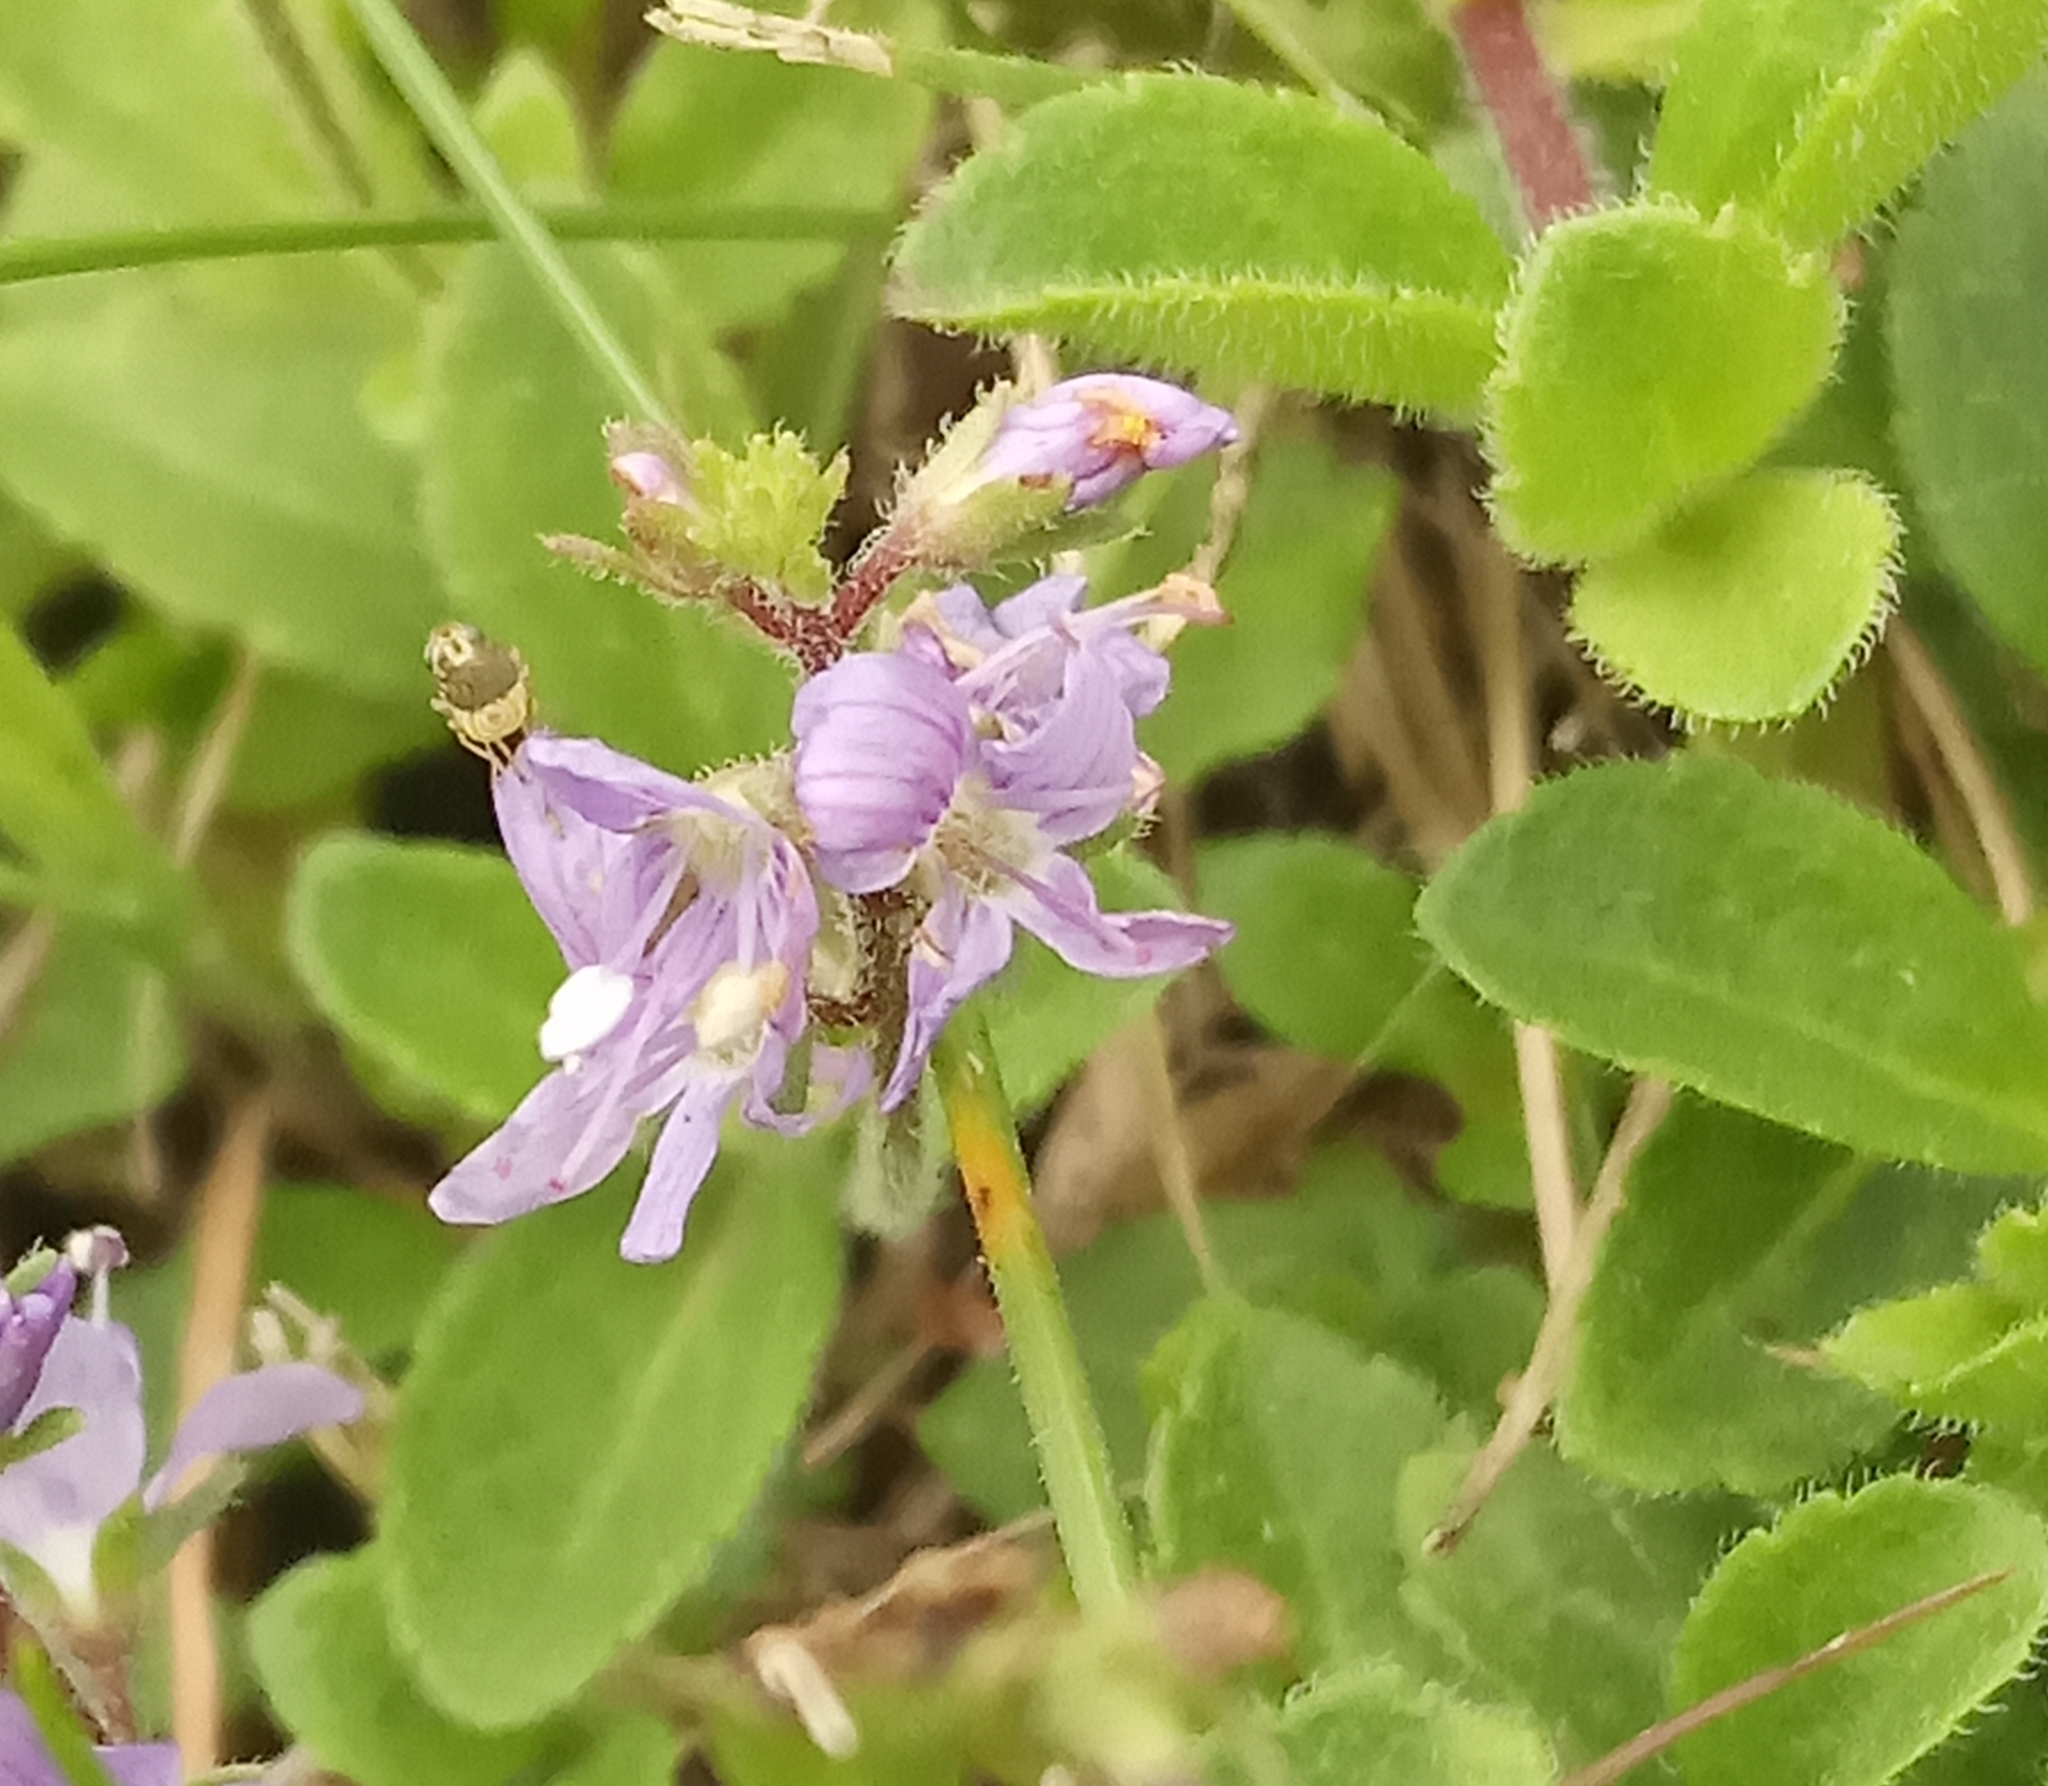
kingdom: Plantae
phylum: Tracheophyta
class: Magnoliopsida
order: Lamiales
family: Plantaginaceae
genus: Veronica
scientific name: Veronica officinalis
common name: Common speedwell
